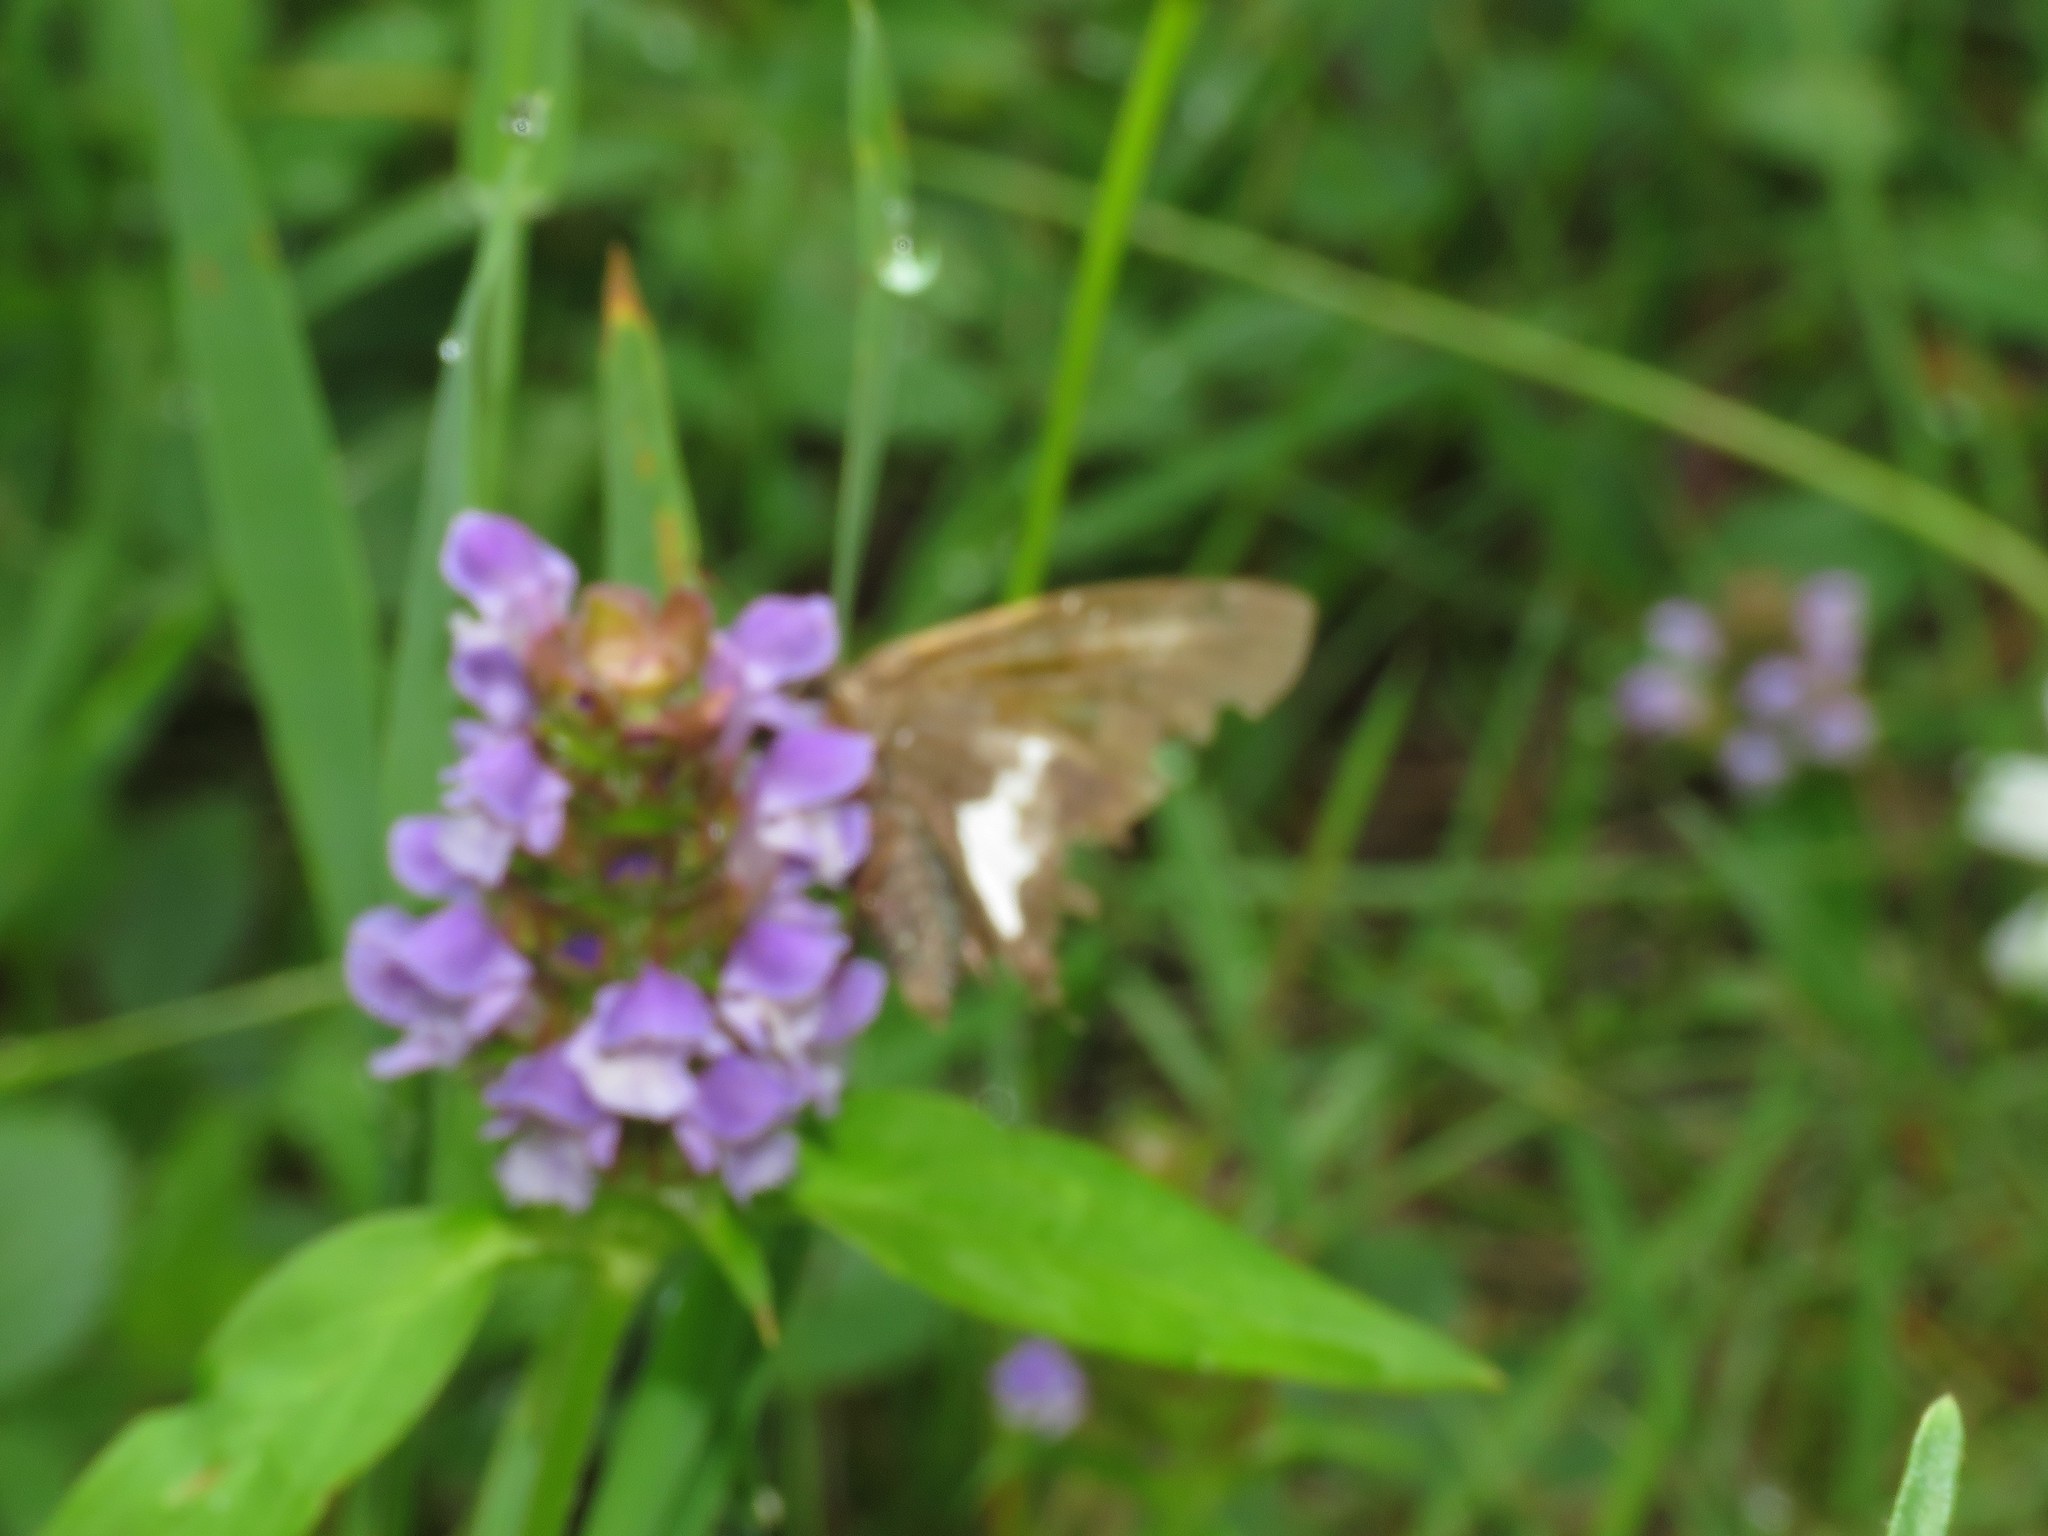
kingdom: Animalia
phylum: Arthropoda
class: Insecta
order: Lepidoptera
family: Hesperiidae
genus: Epargyreus
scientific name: Epargyreus clarus
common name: Silver-spotted skipper
